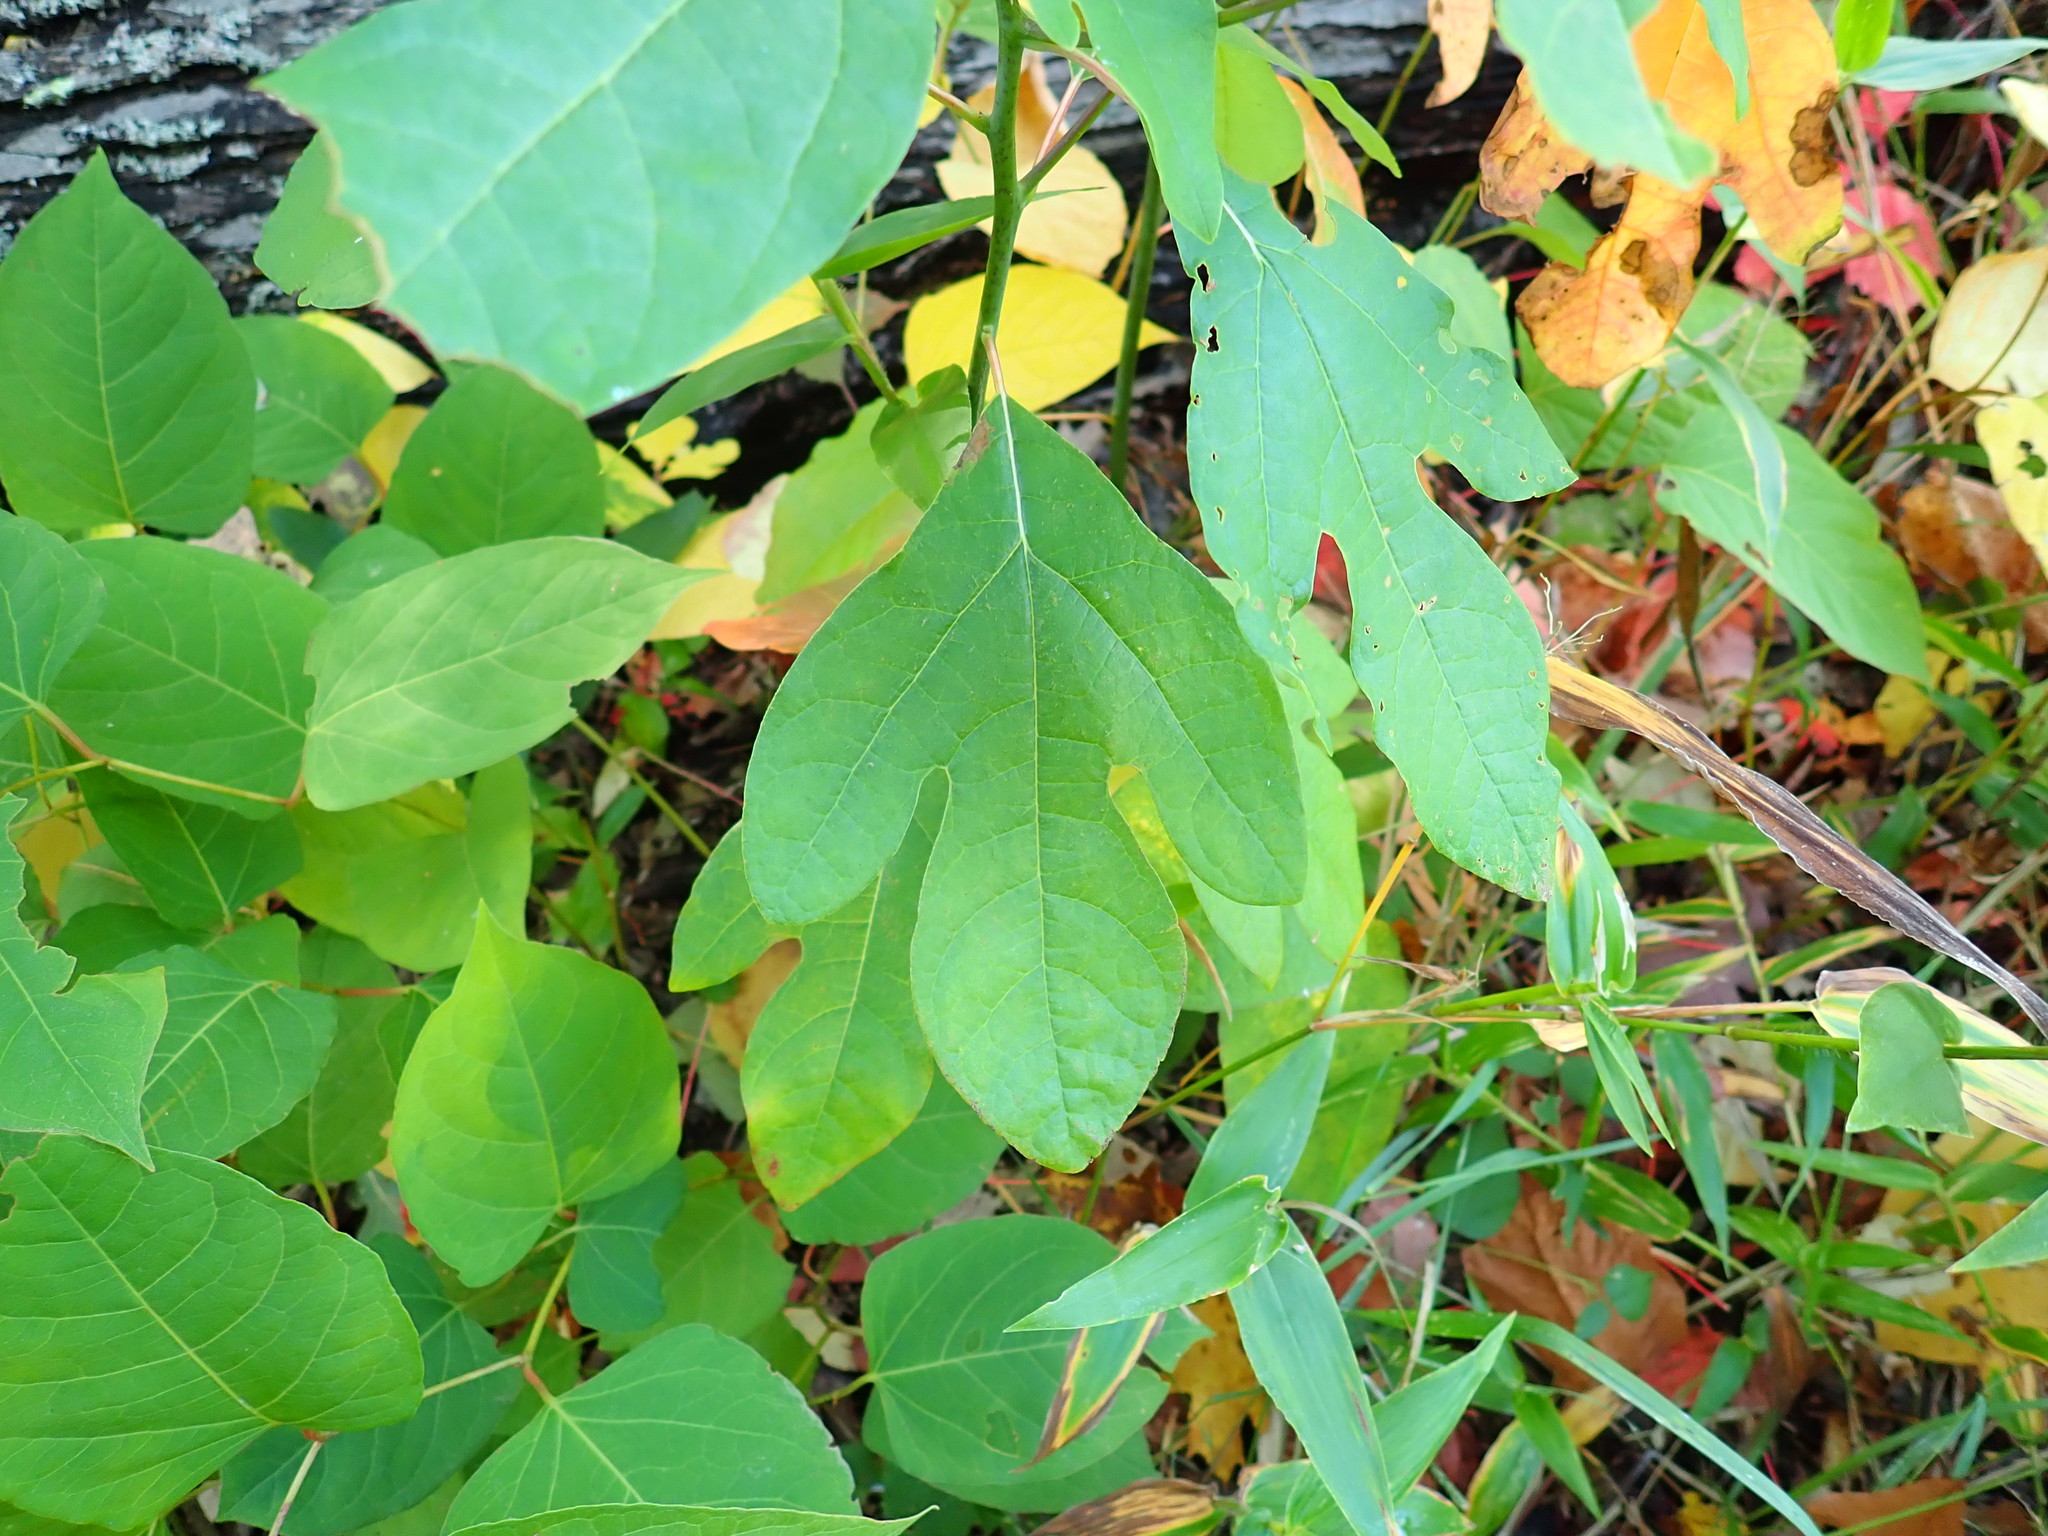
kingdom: Plantae
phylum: Tracheophyta
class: Magnoliopsida
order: Laurales
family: Lauraceae
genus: Sassafras
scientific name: Sassafras albidum
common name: Sassafras
